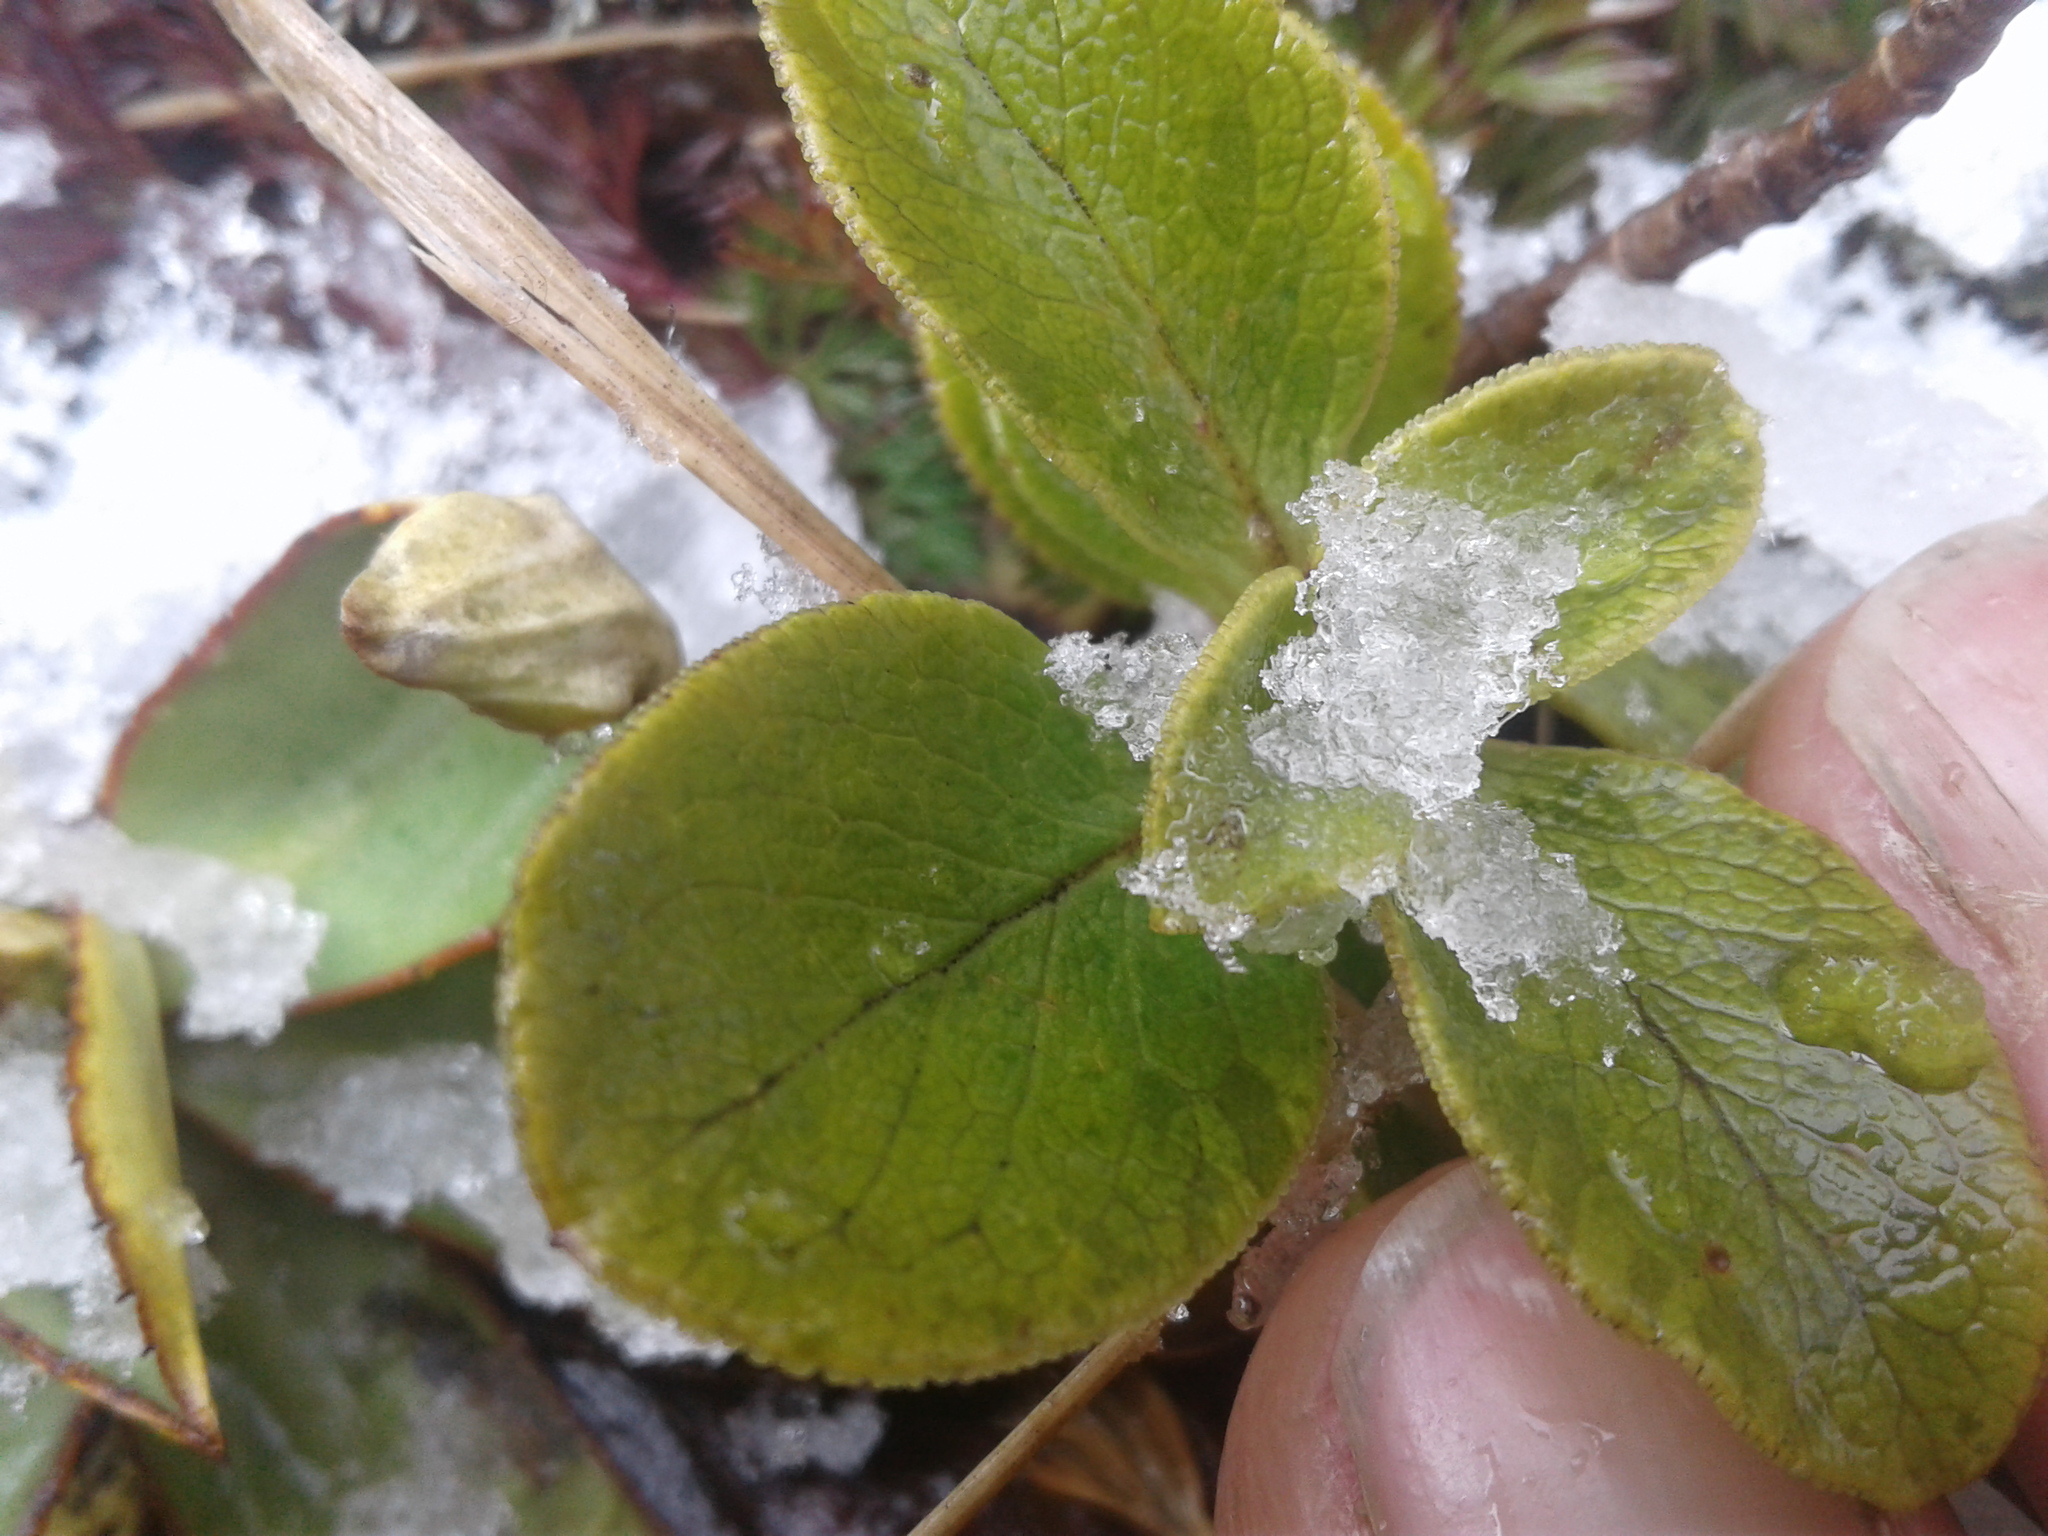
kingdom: Plantae
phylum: Tracheophyta
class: Magnoliopsida
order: Gentianales
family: Rubiaceae
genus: Coprosma
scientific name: Coprosma serrulata
